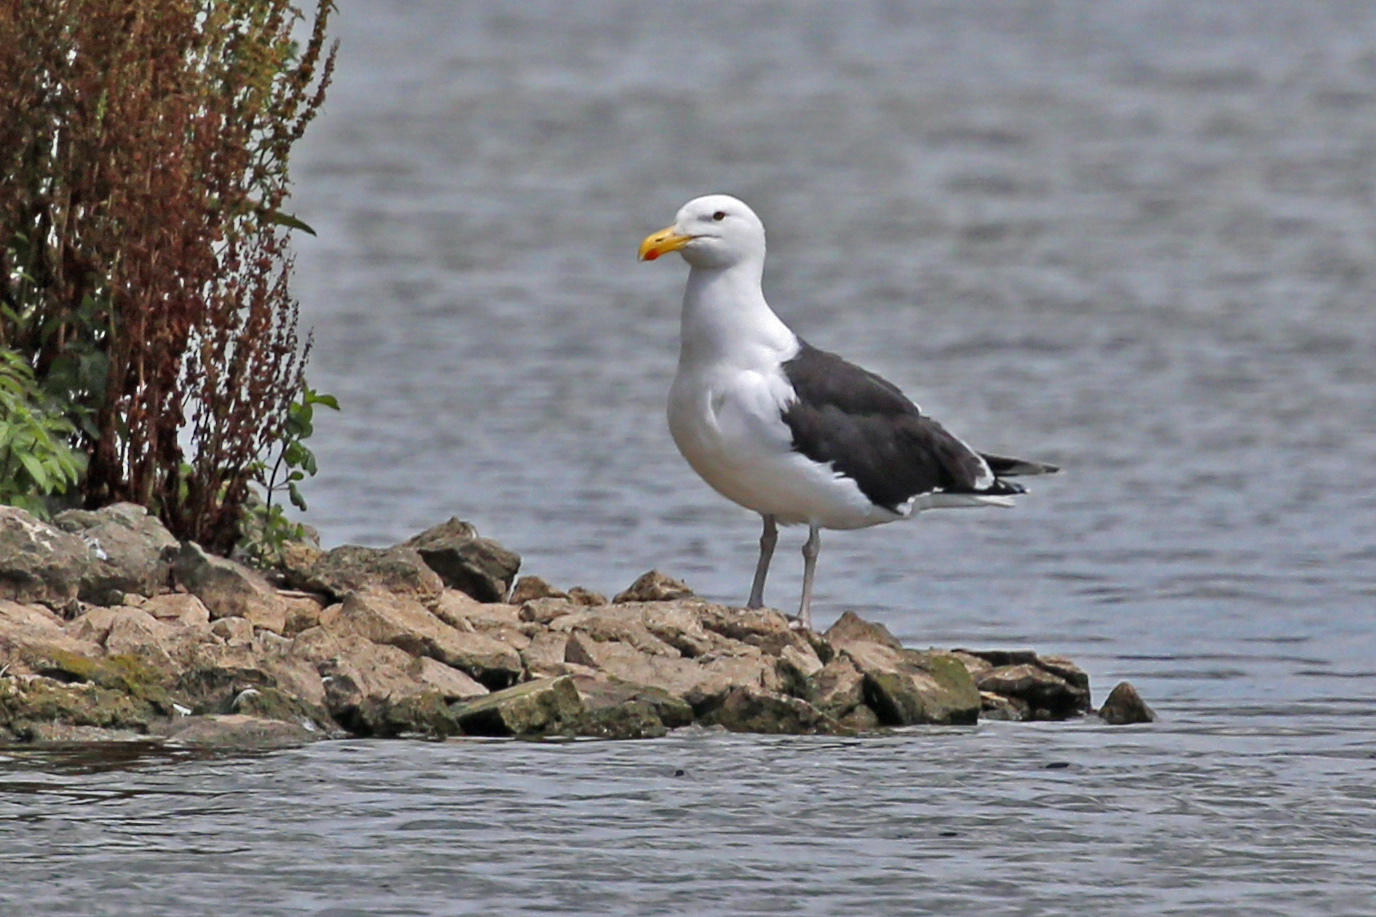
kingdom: Animalia
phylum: Chordata
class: Aves
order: Charadriiformes
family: Laridae
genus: Larus
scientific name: Larus marinus
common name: Great black-backed gull
